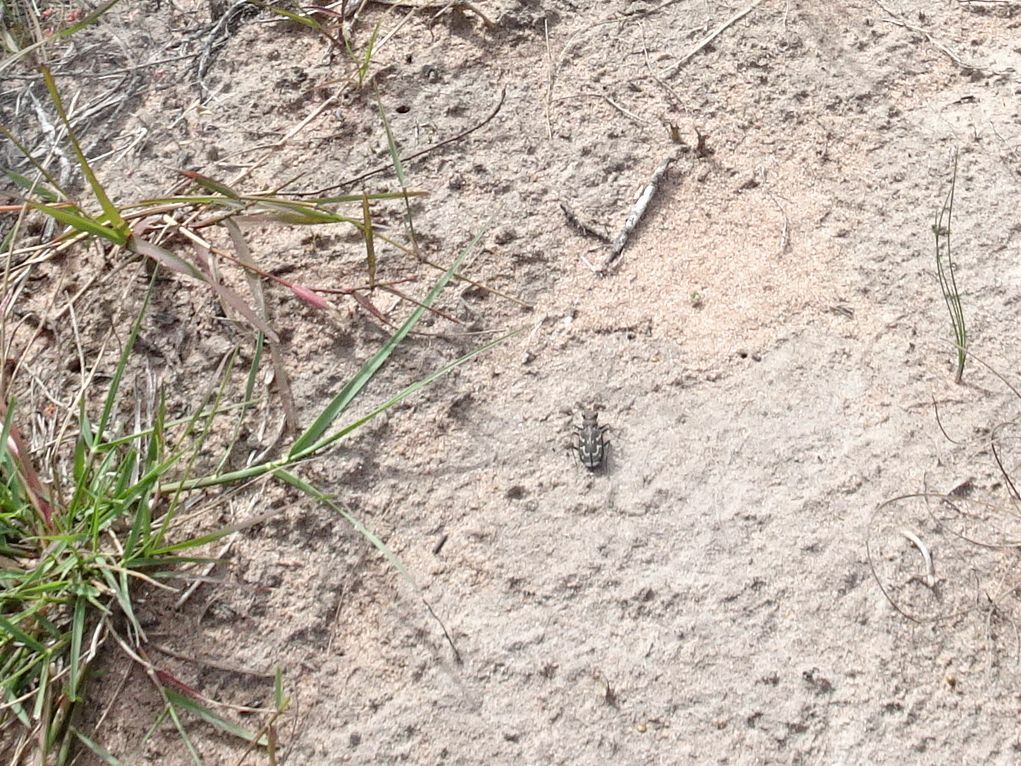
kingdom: Animalia
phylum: Arthropoda
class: Insecta
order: Coleoptera
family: Carabidae
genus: Cicindela
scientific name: Cicindela lurida
